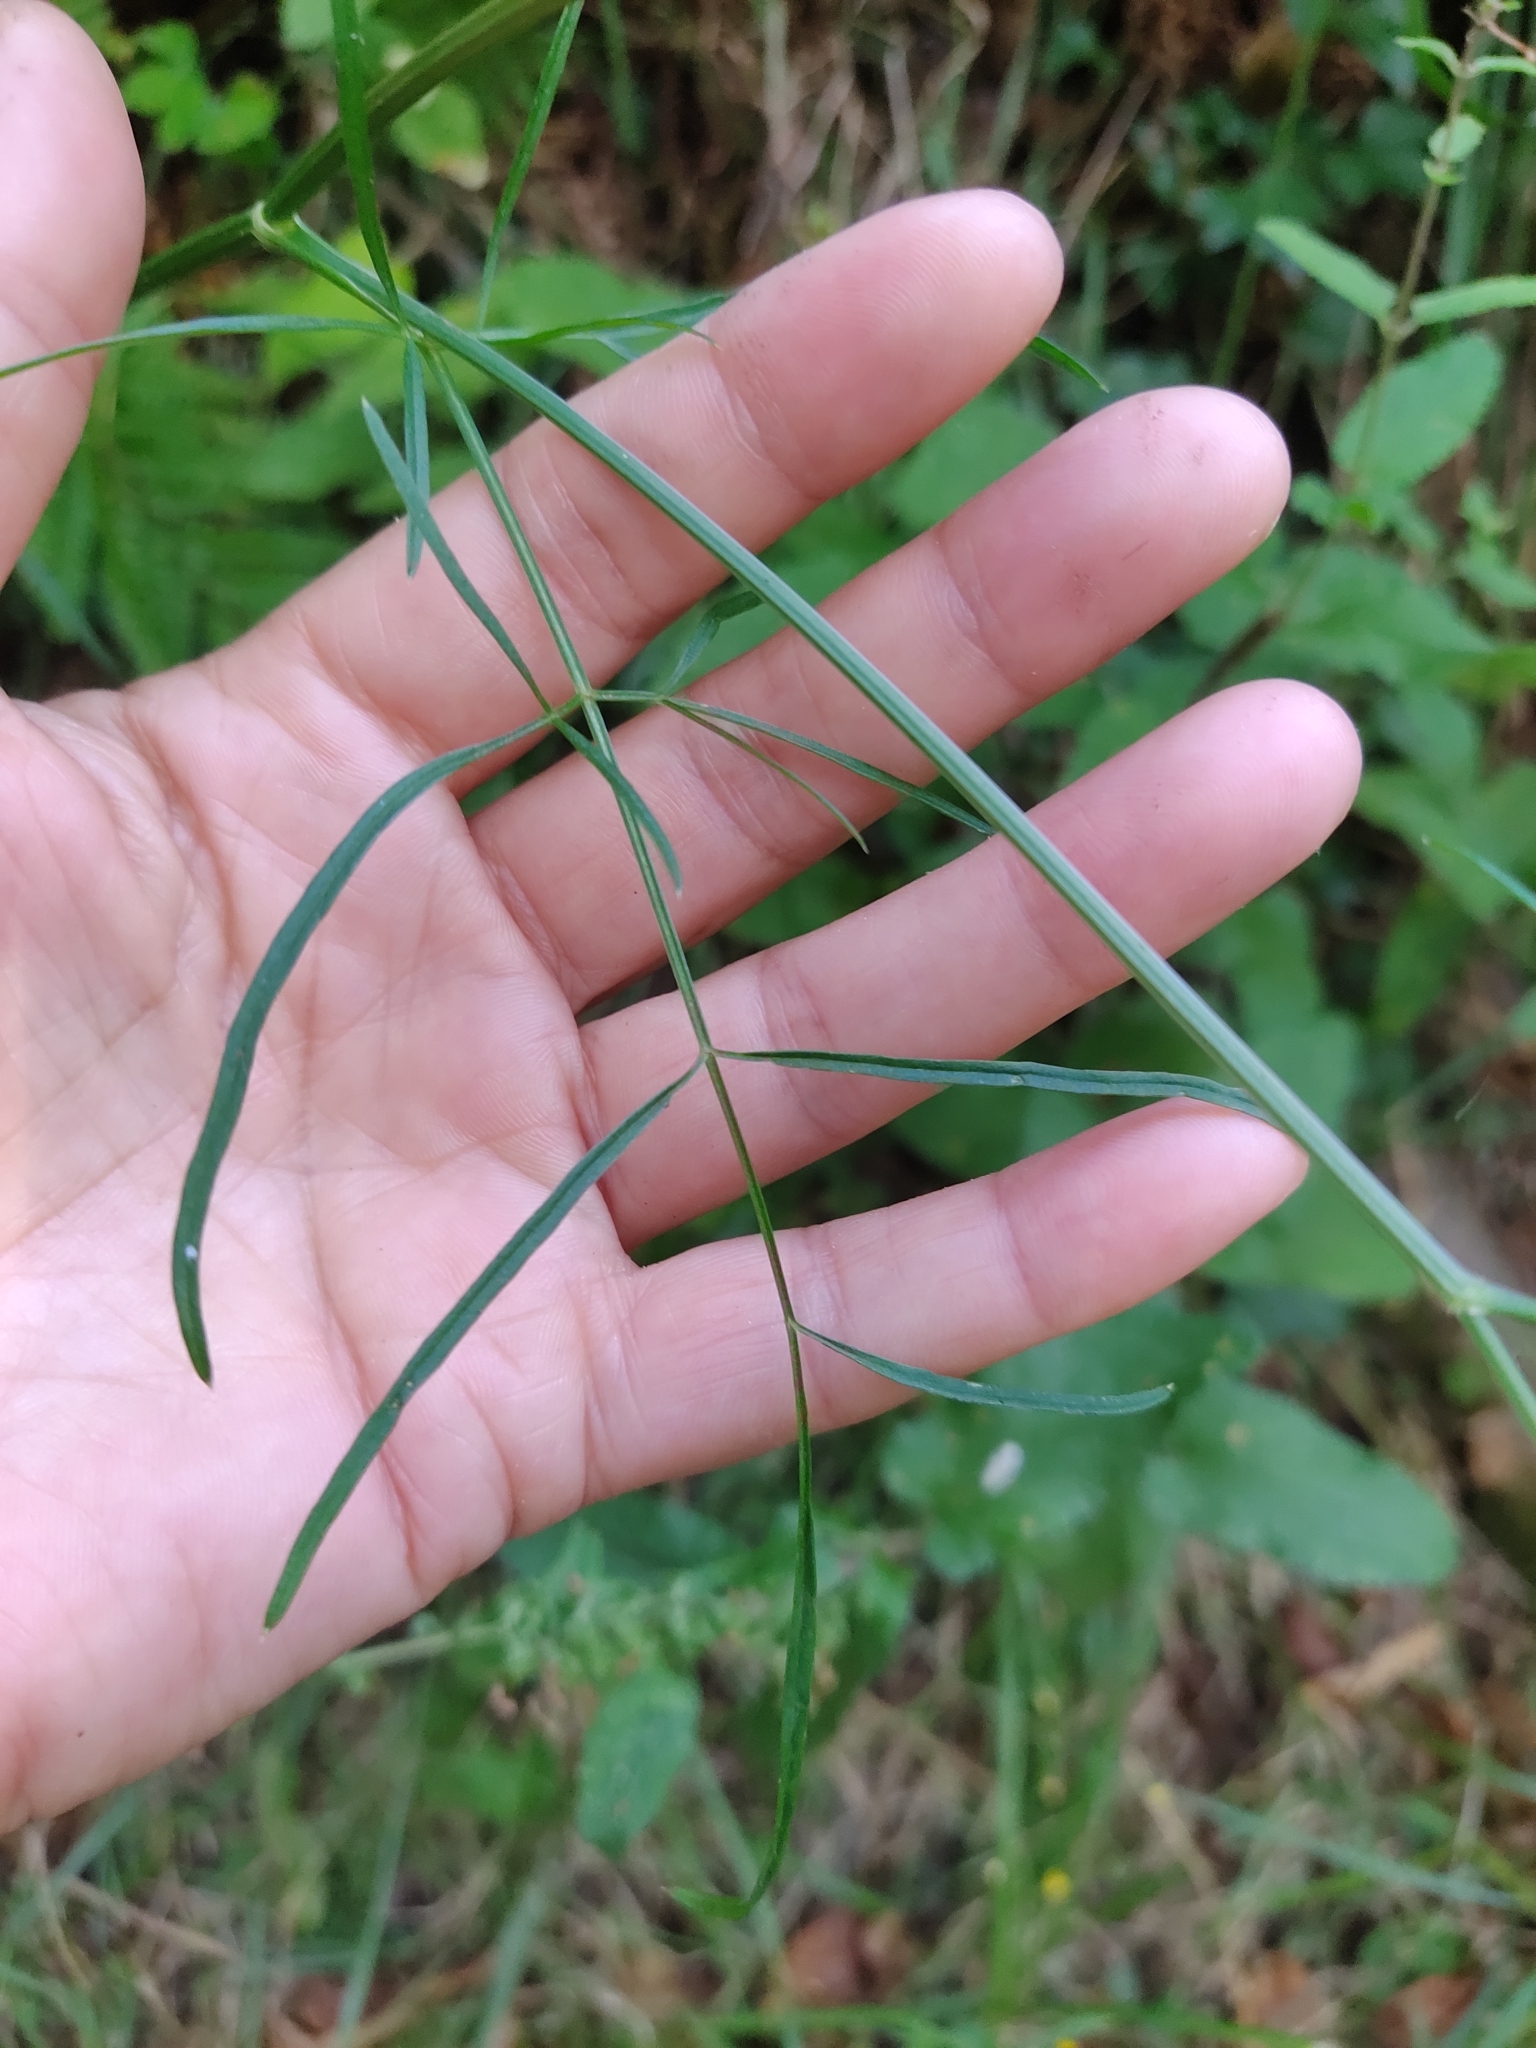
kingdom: Plantae
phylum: Tracheophyta
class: Magnoliopsida
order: Apiales
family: Apiaceae
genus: Selinum
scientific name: Selinum broteroi
